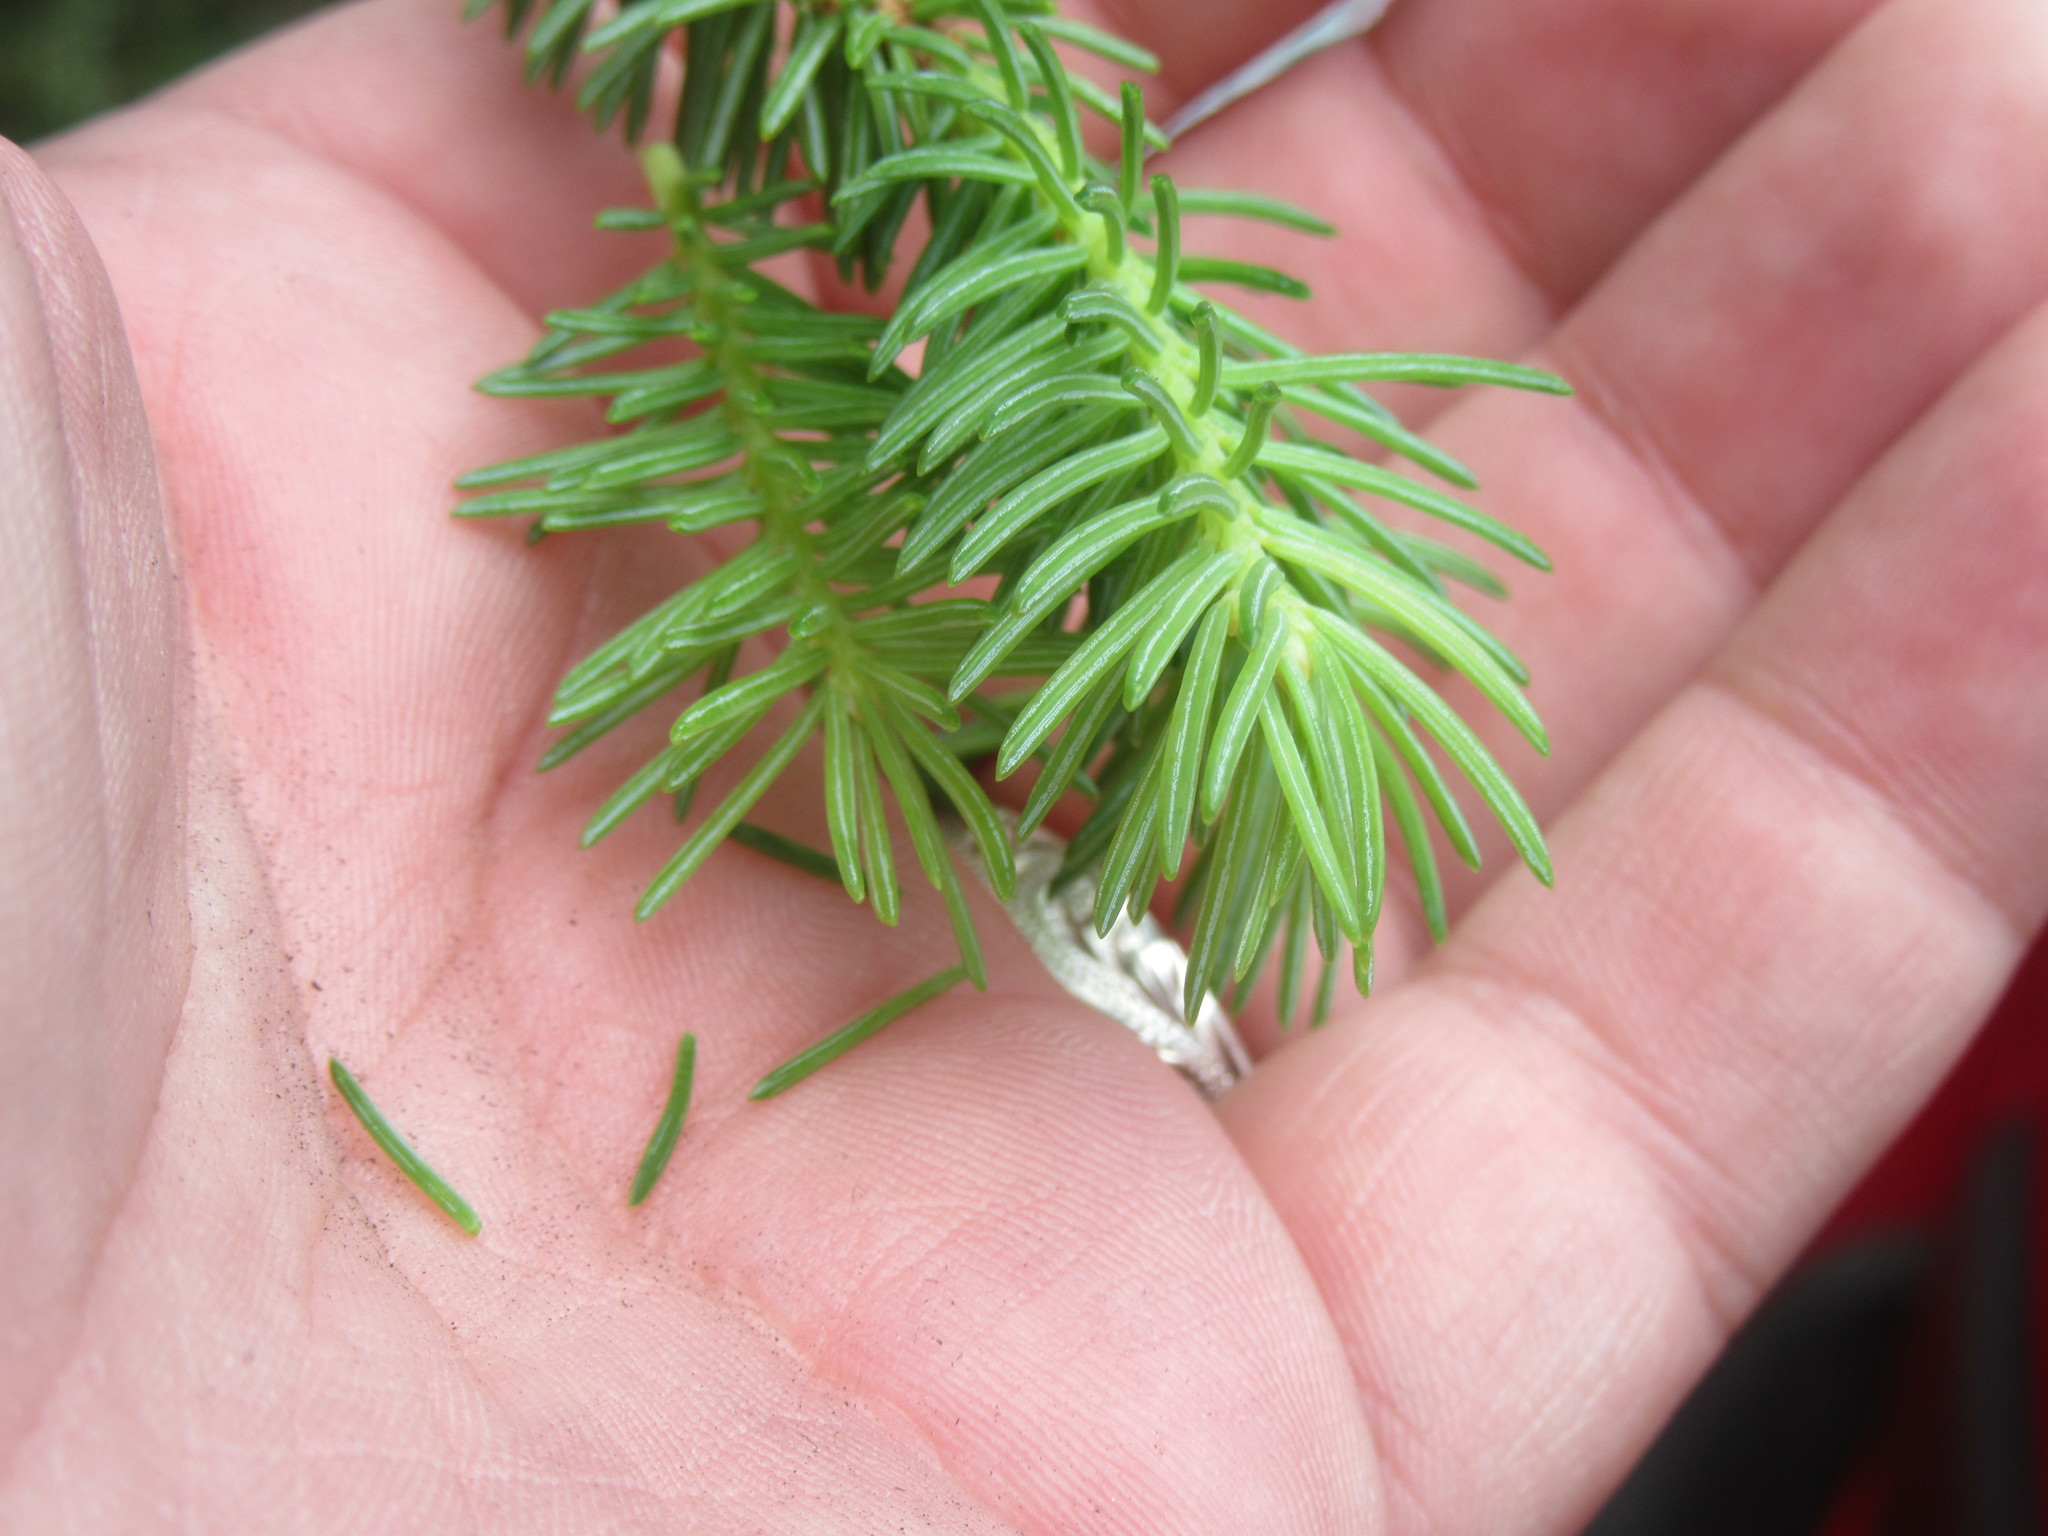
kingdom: Plantae
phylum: Tracheophyta
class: Pinopsida
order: Pinales
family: Pinaceae
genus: Abies
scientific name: Abies balsamea
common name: Balsam fir
